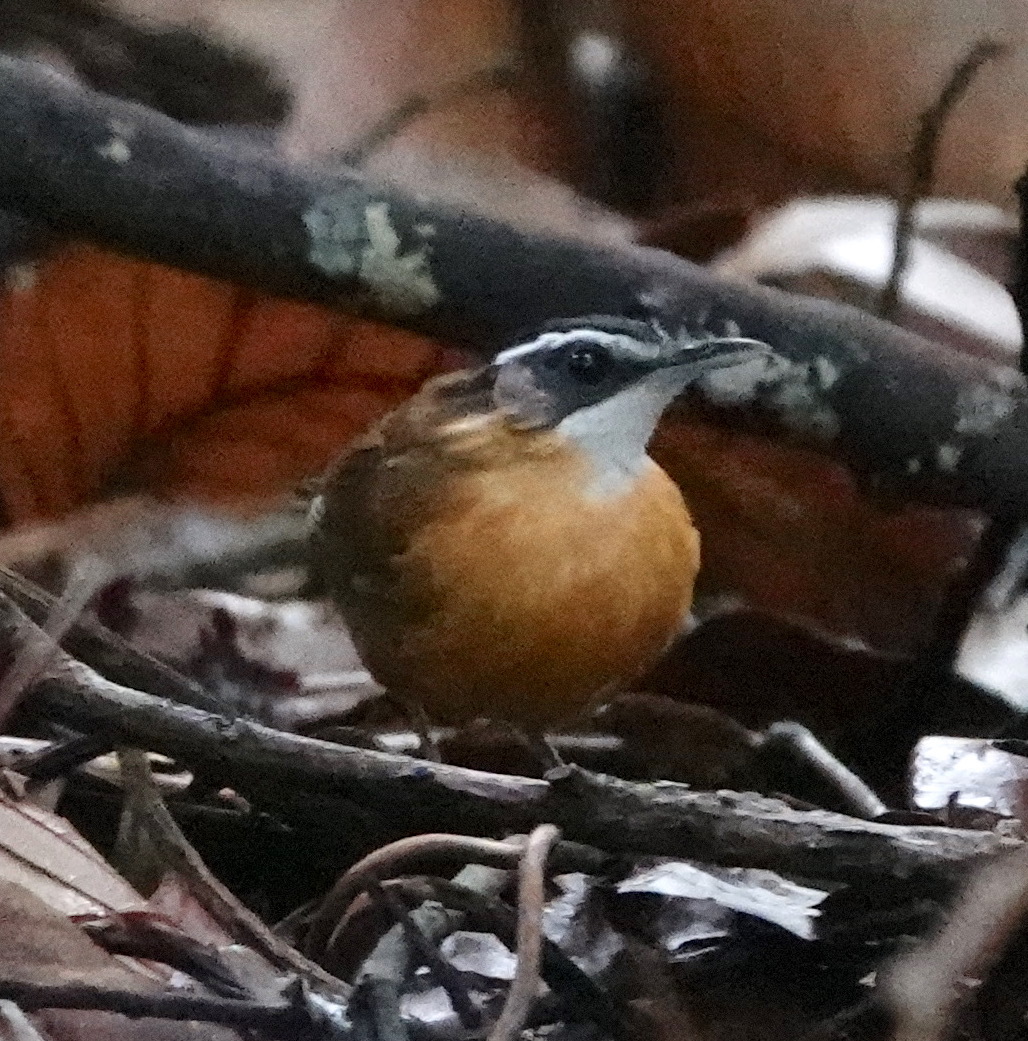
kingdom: Animalia
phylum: Chordata
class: Aves
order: Passeriformes
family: Pellorneidae
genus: Pellorneum
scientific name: Pellorneum capistratum
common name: Black-capped babbler
